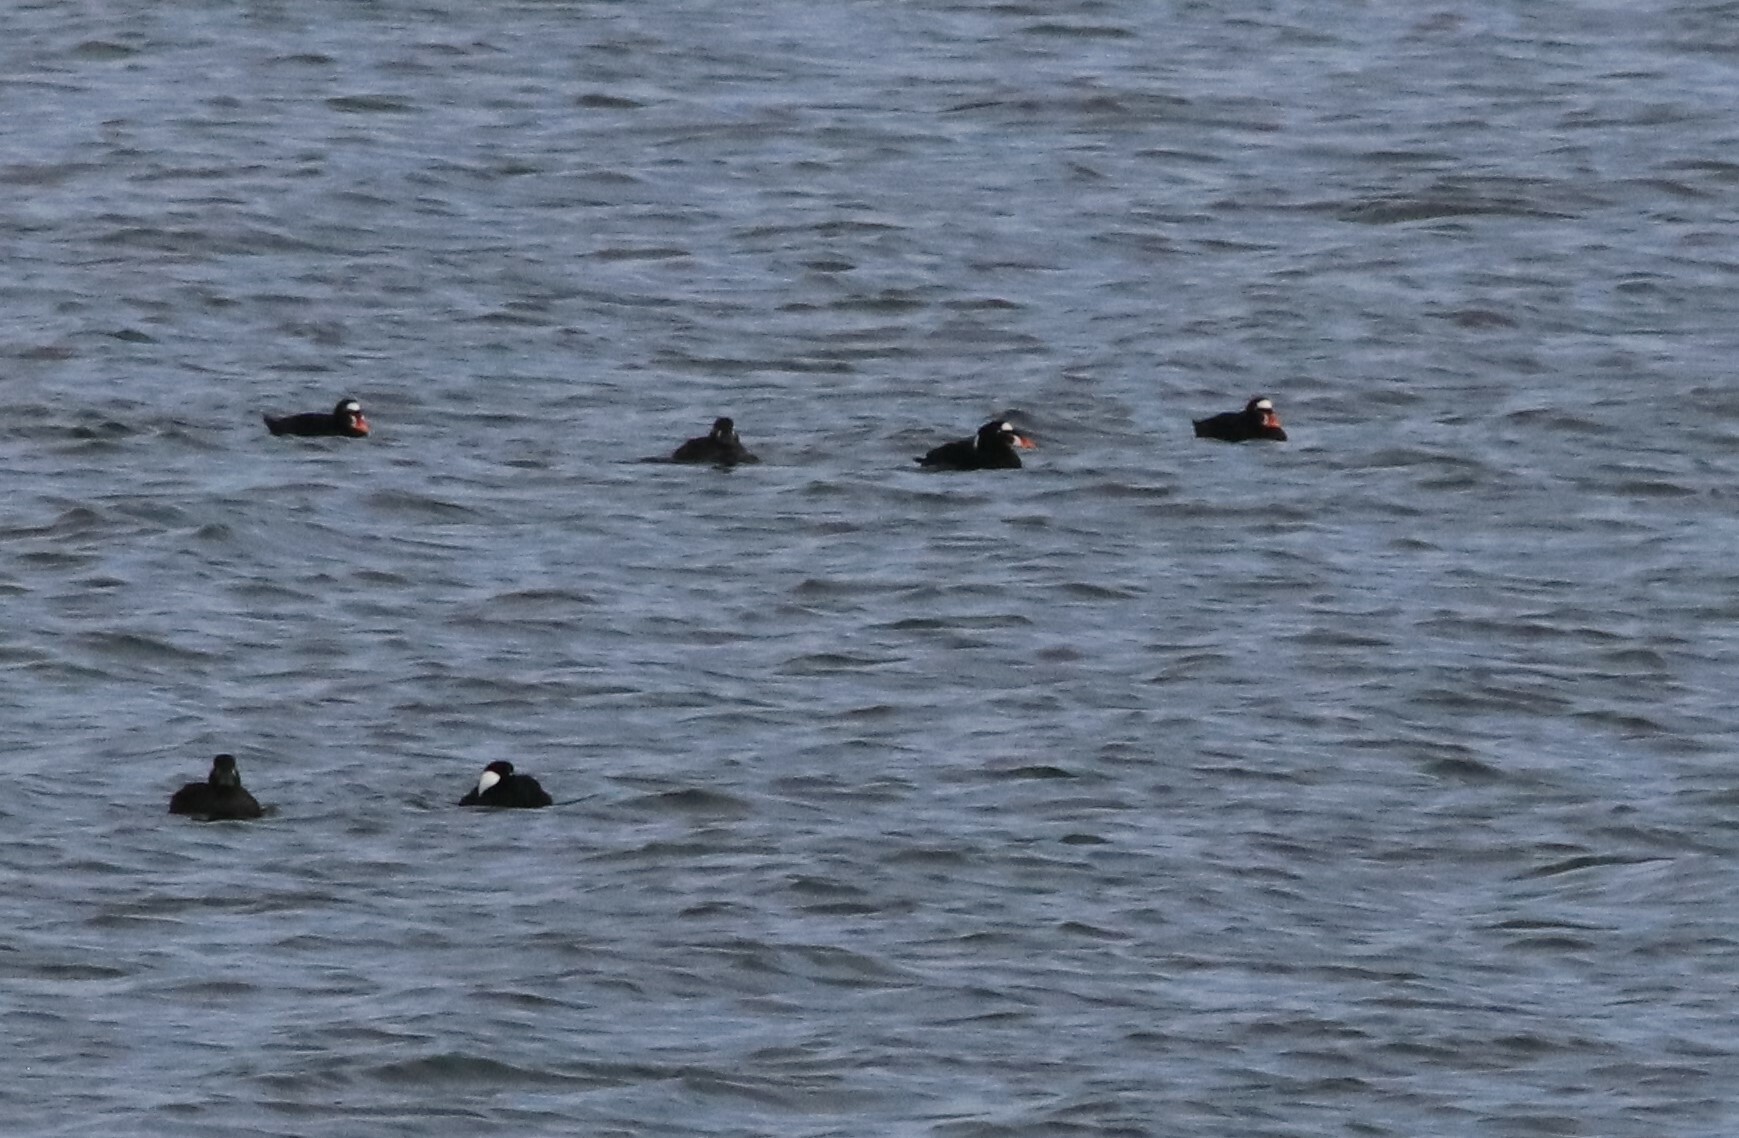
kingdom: Animalia
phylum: Chordata
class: Aves
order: Anseriformes
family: Anatidae
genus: Melanitta
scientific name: Melanitta perspicillata
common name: Surf scoter
